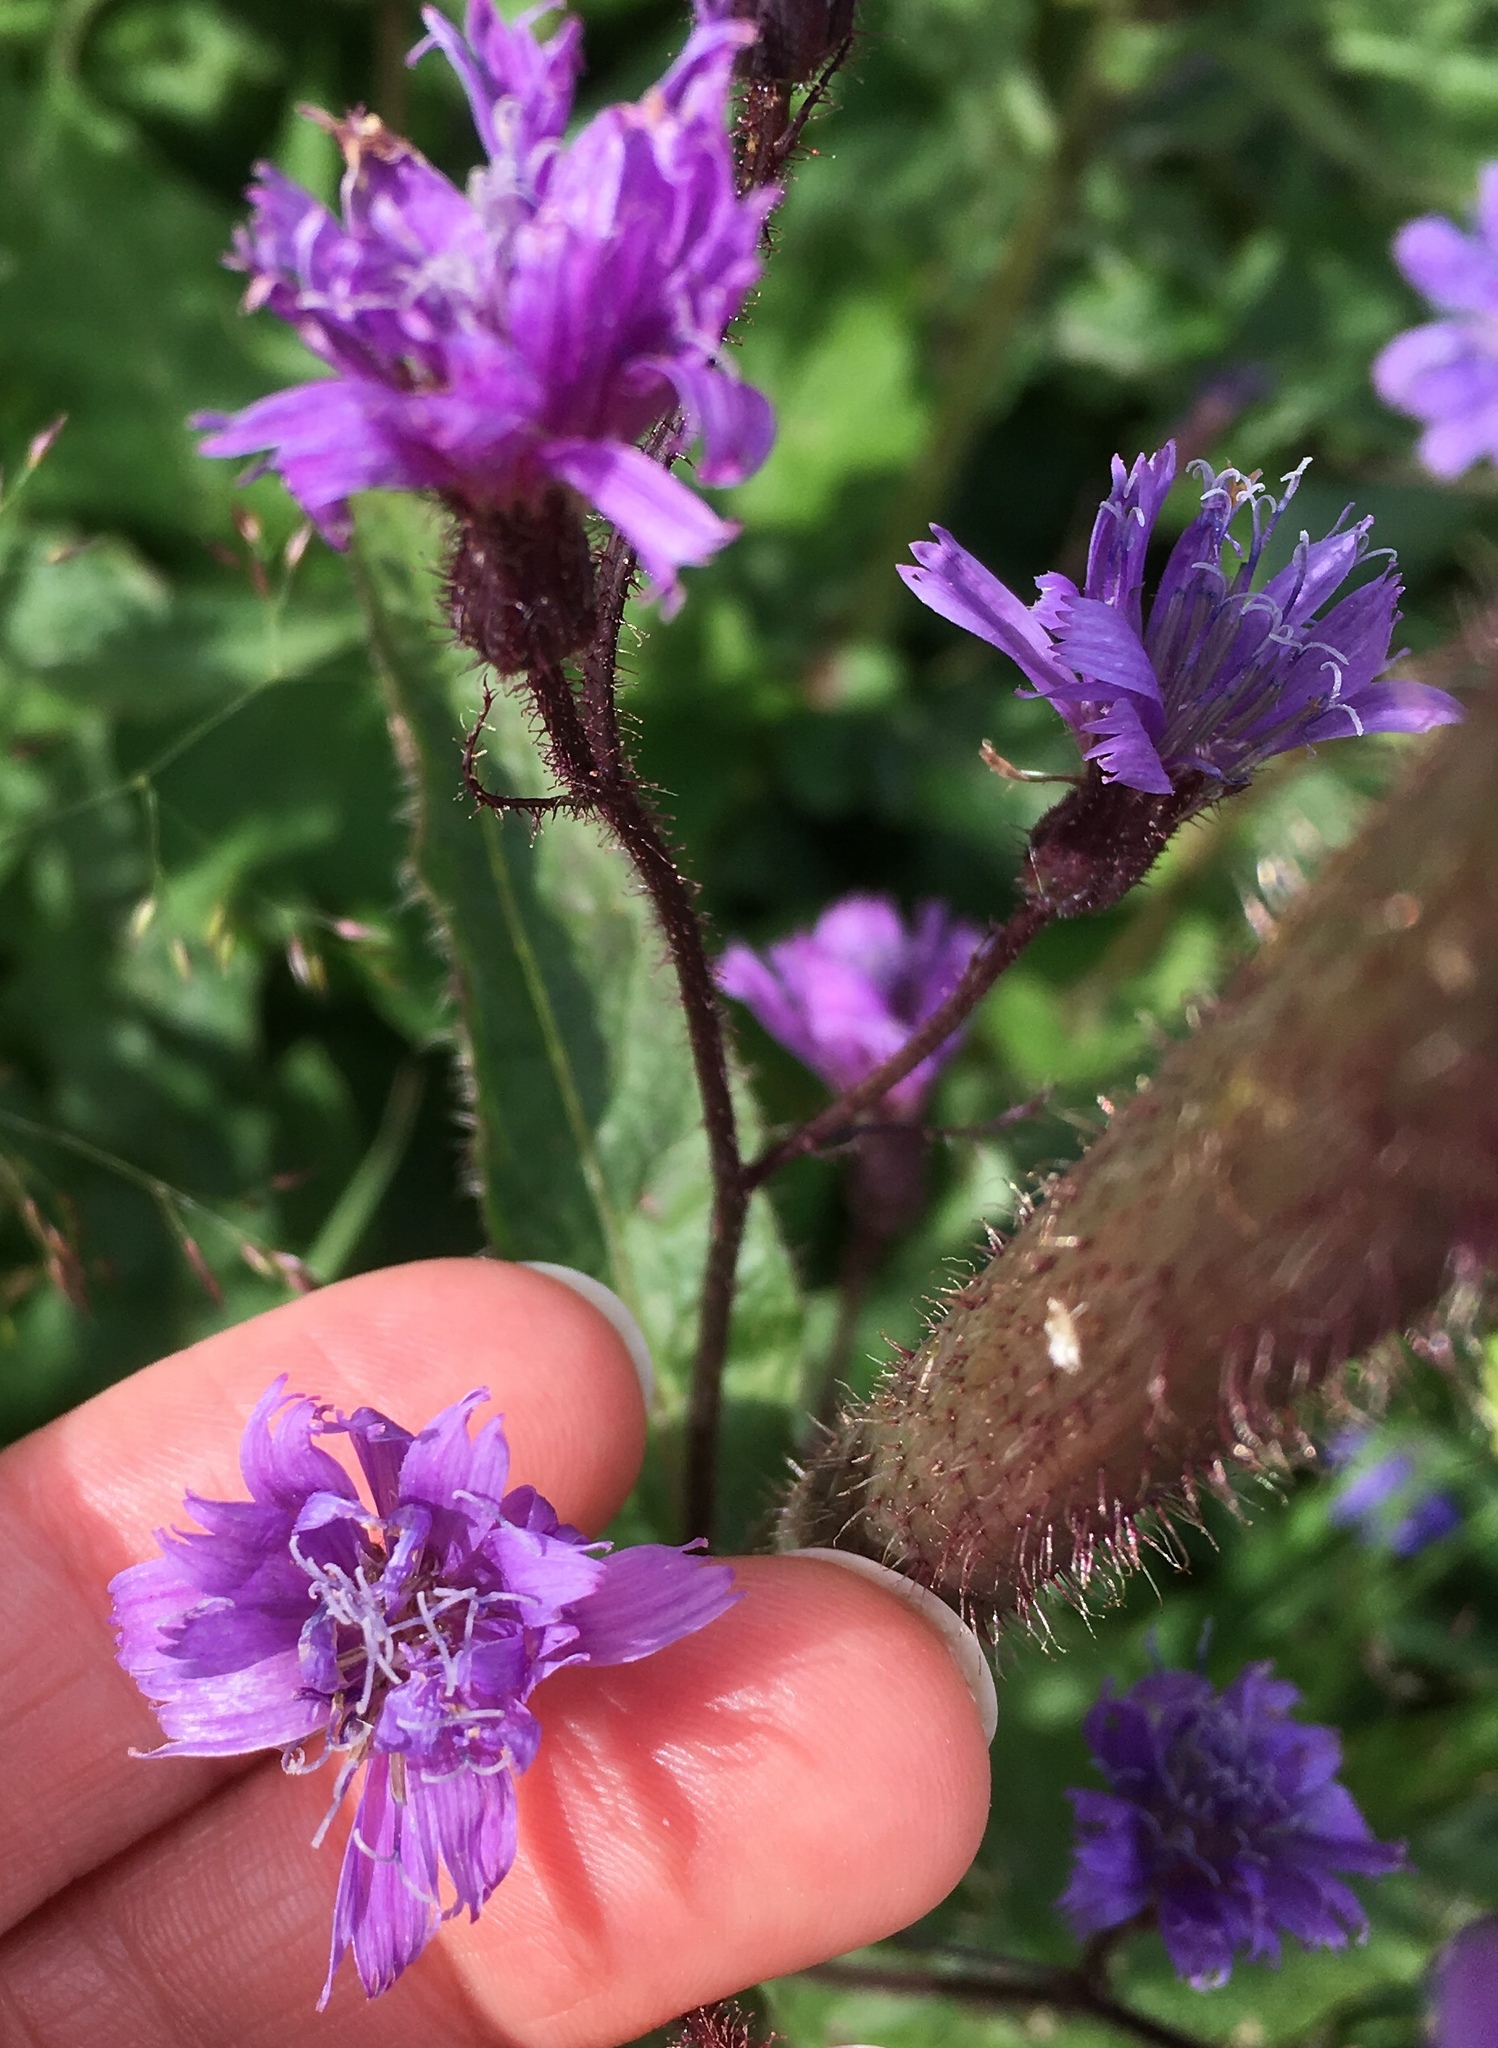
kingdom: Plantae
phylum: Tracheophyta
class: Magnoliopsida
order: Asterales
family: Asteraceae
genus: Cicerbita
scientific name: Cicerbita alpina
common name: Alpine blue-sow-thistle
